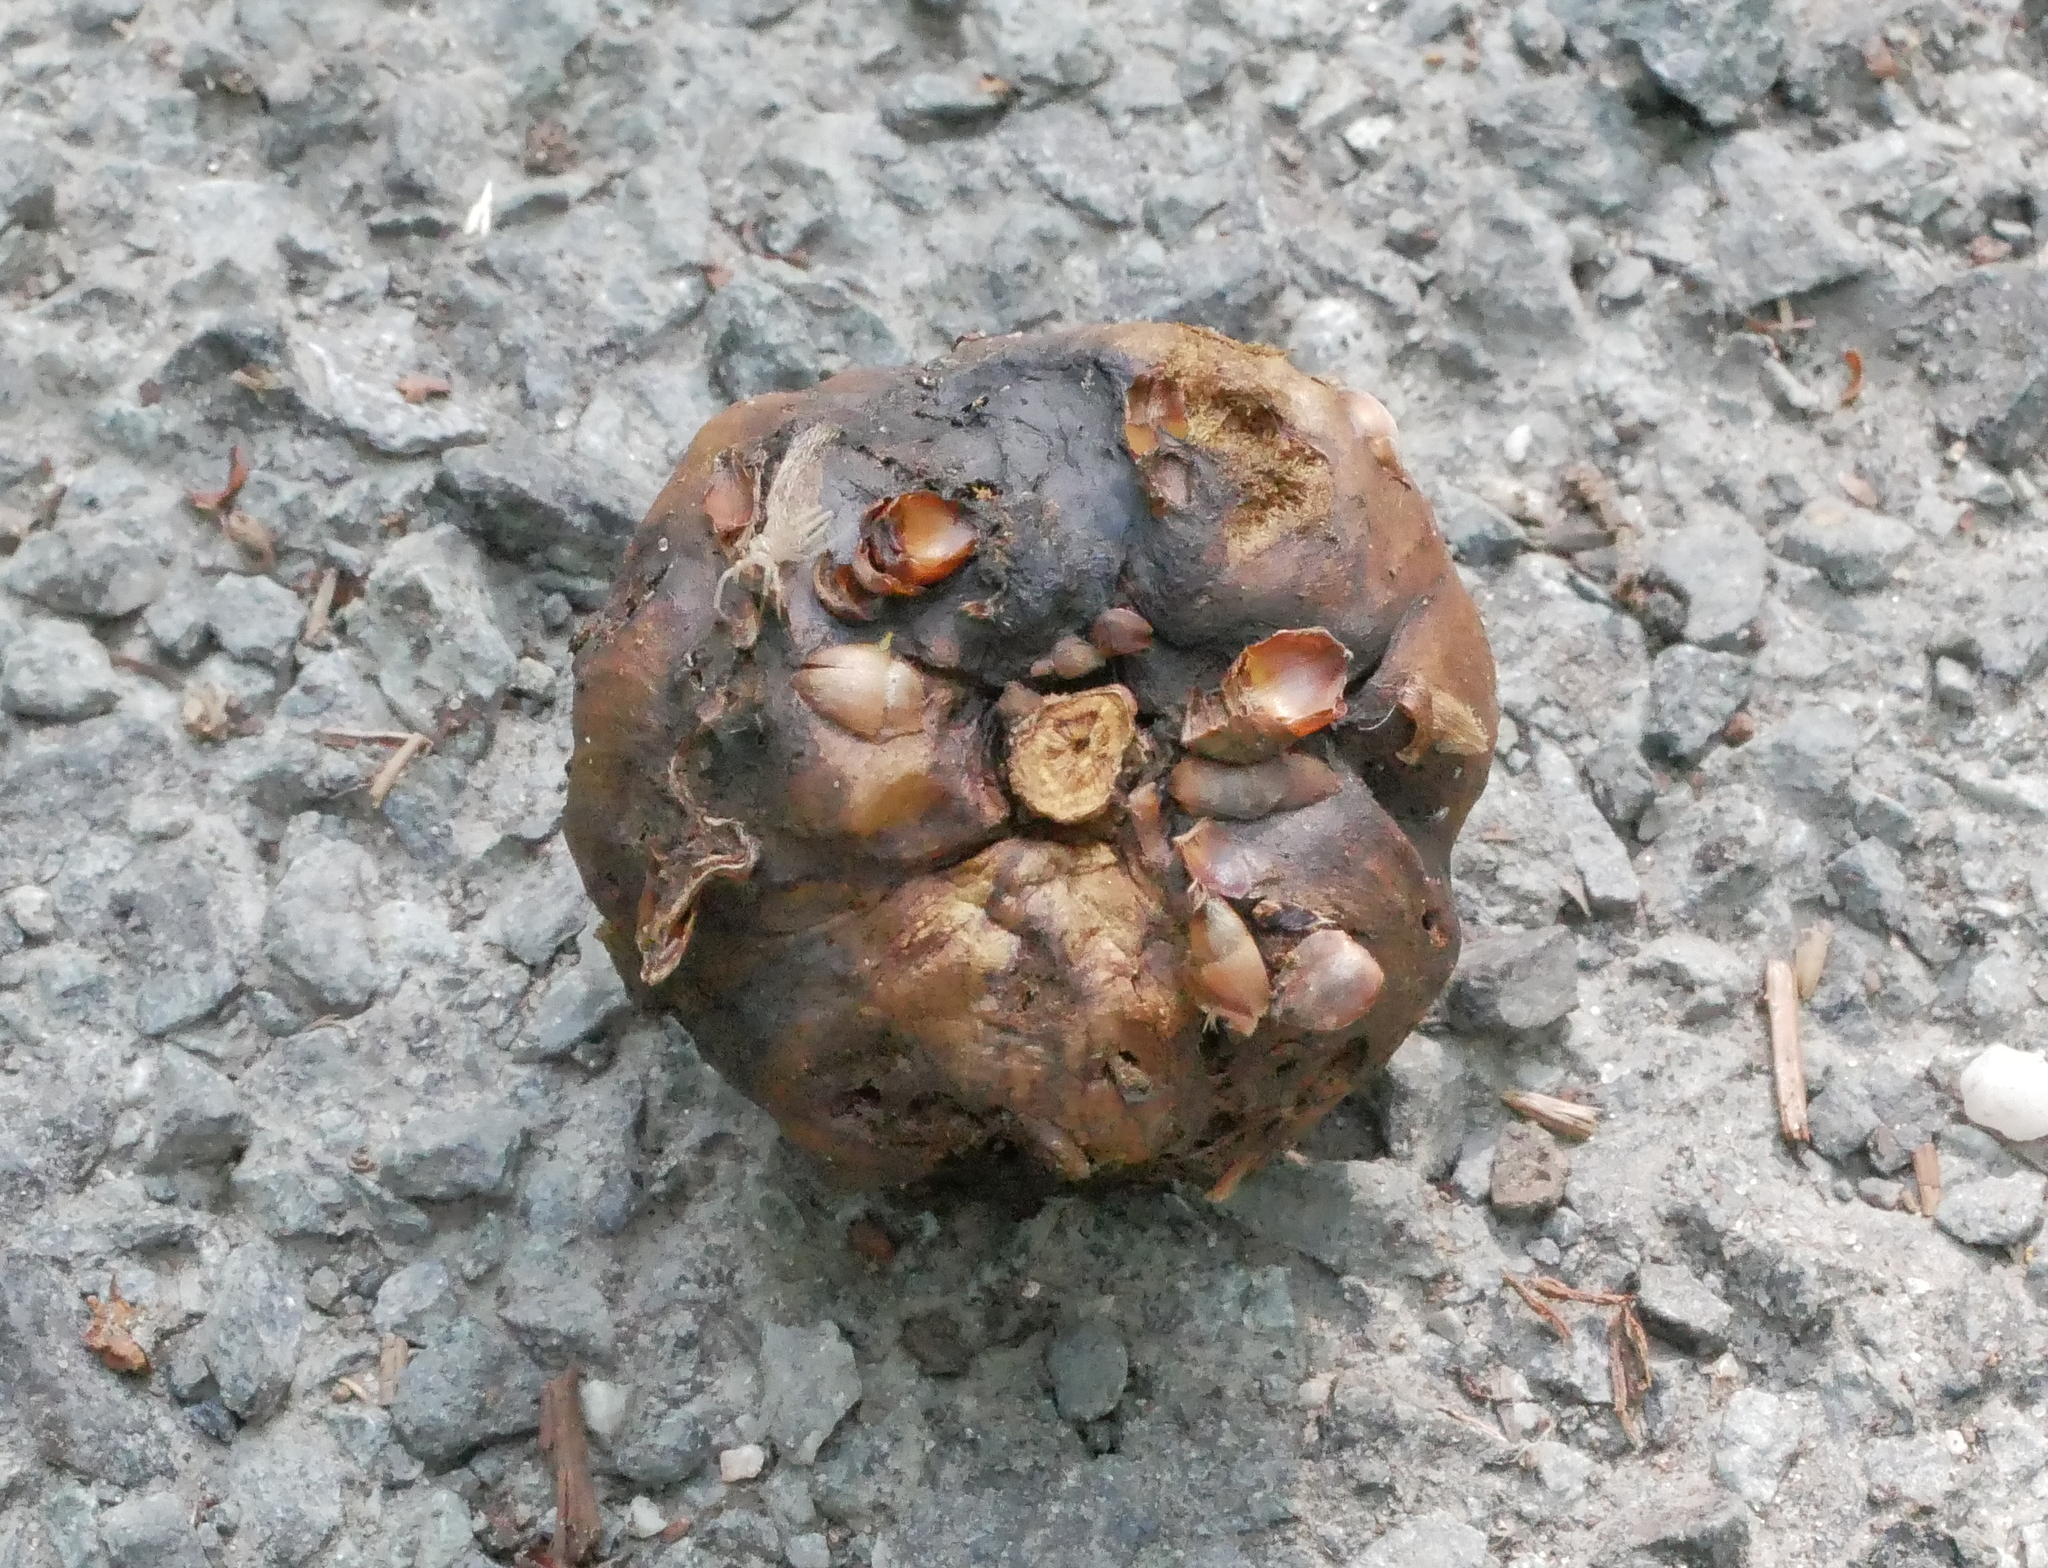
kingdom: Animalia
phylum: Arthropoda
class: Insecta
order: Hymenoptera
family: Cynipidae
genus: Biorhiza
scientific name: Biorhiza pallida
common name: Oak apple
